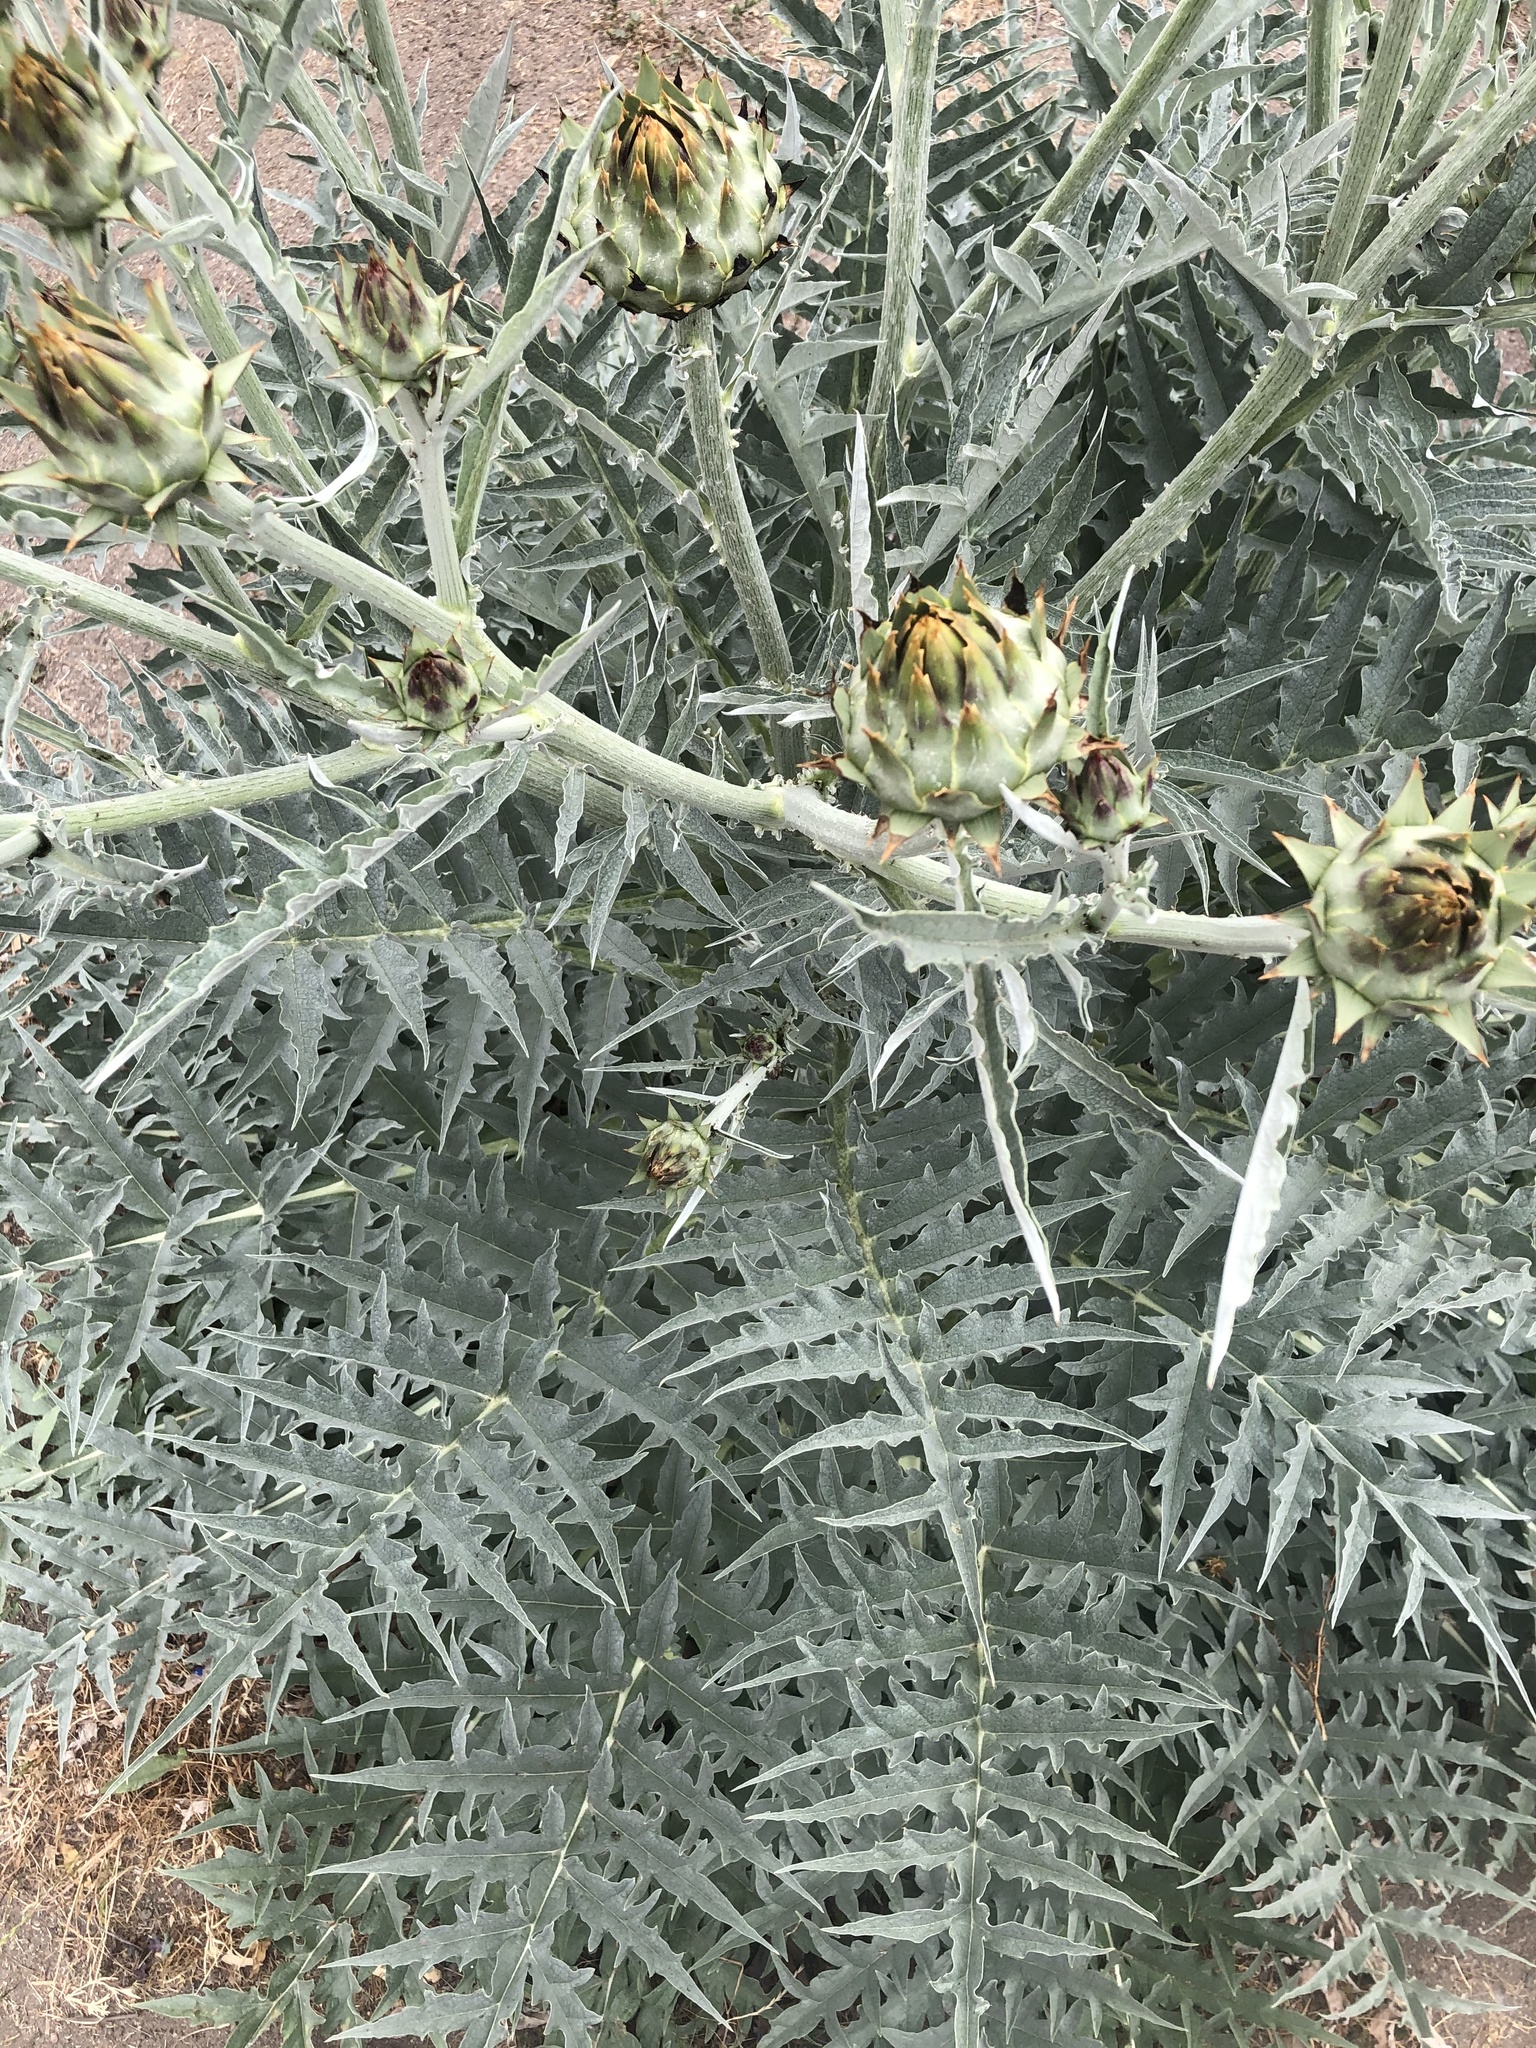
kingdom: Plantae
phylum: Tracheophyta
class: Magnoliopsida
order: Asterales
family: Asteraceae
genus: Cynara
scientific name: Cynara cardunculus
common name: Globe artichoke
